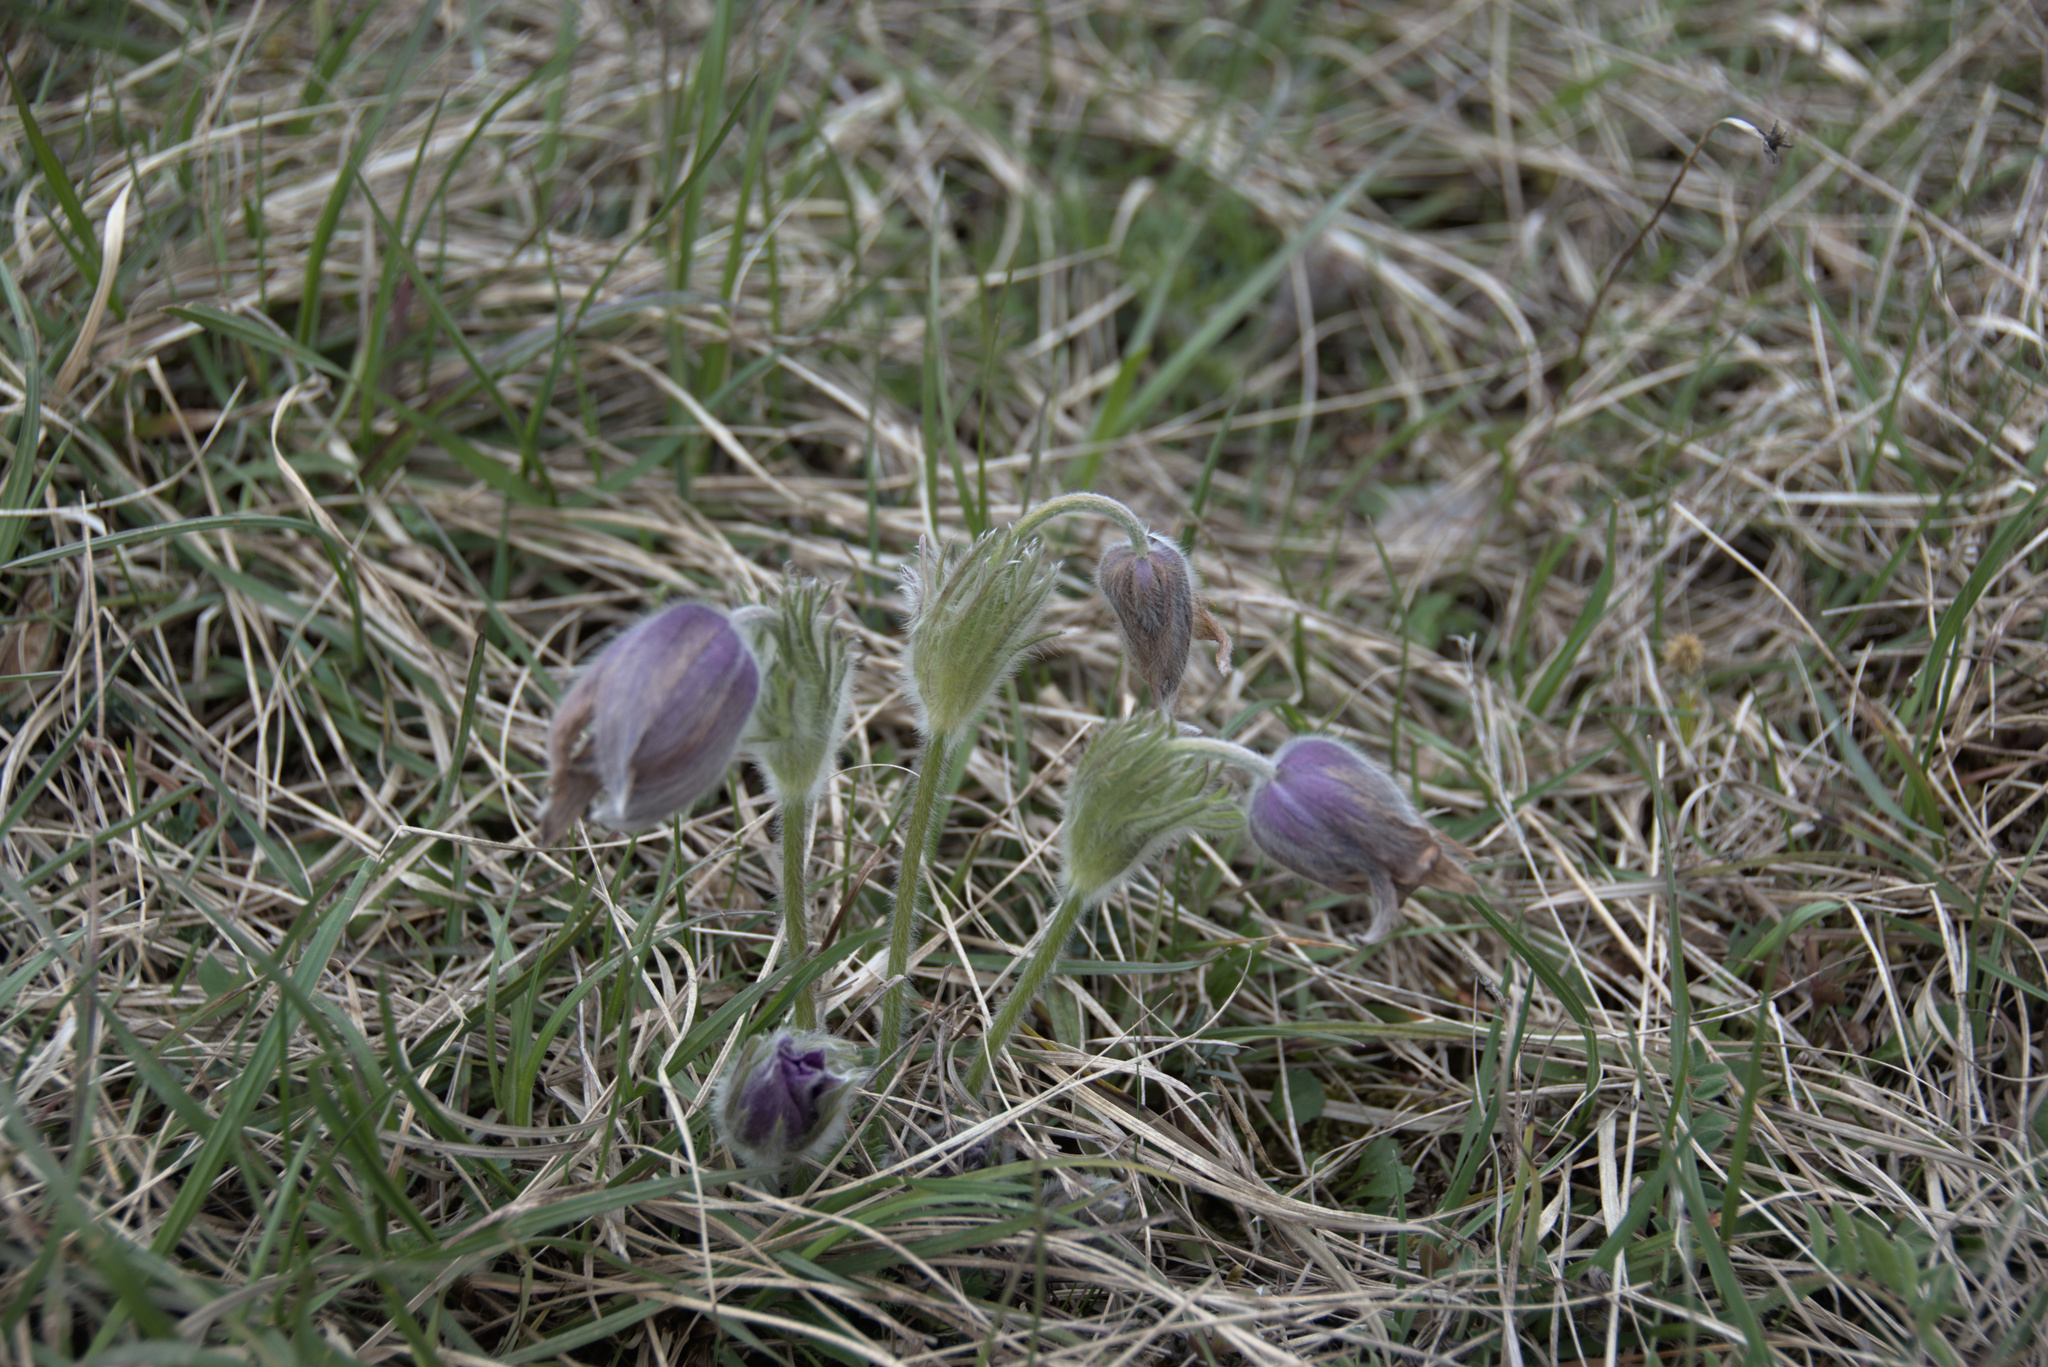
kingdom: Plantae
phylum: Tracheophyta
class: Magnoliopsida
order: Ranunculales
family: Ranunculaceae
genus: Pulsatilla
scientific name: Pulsatilla vulgaris
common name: Pasqueflower
